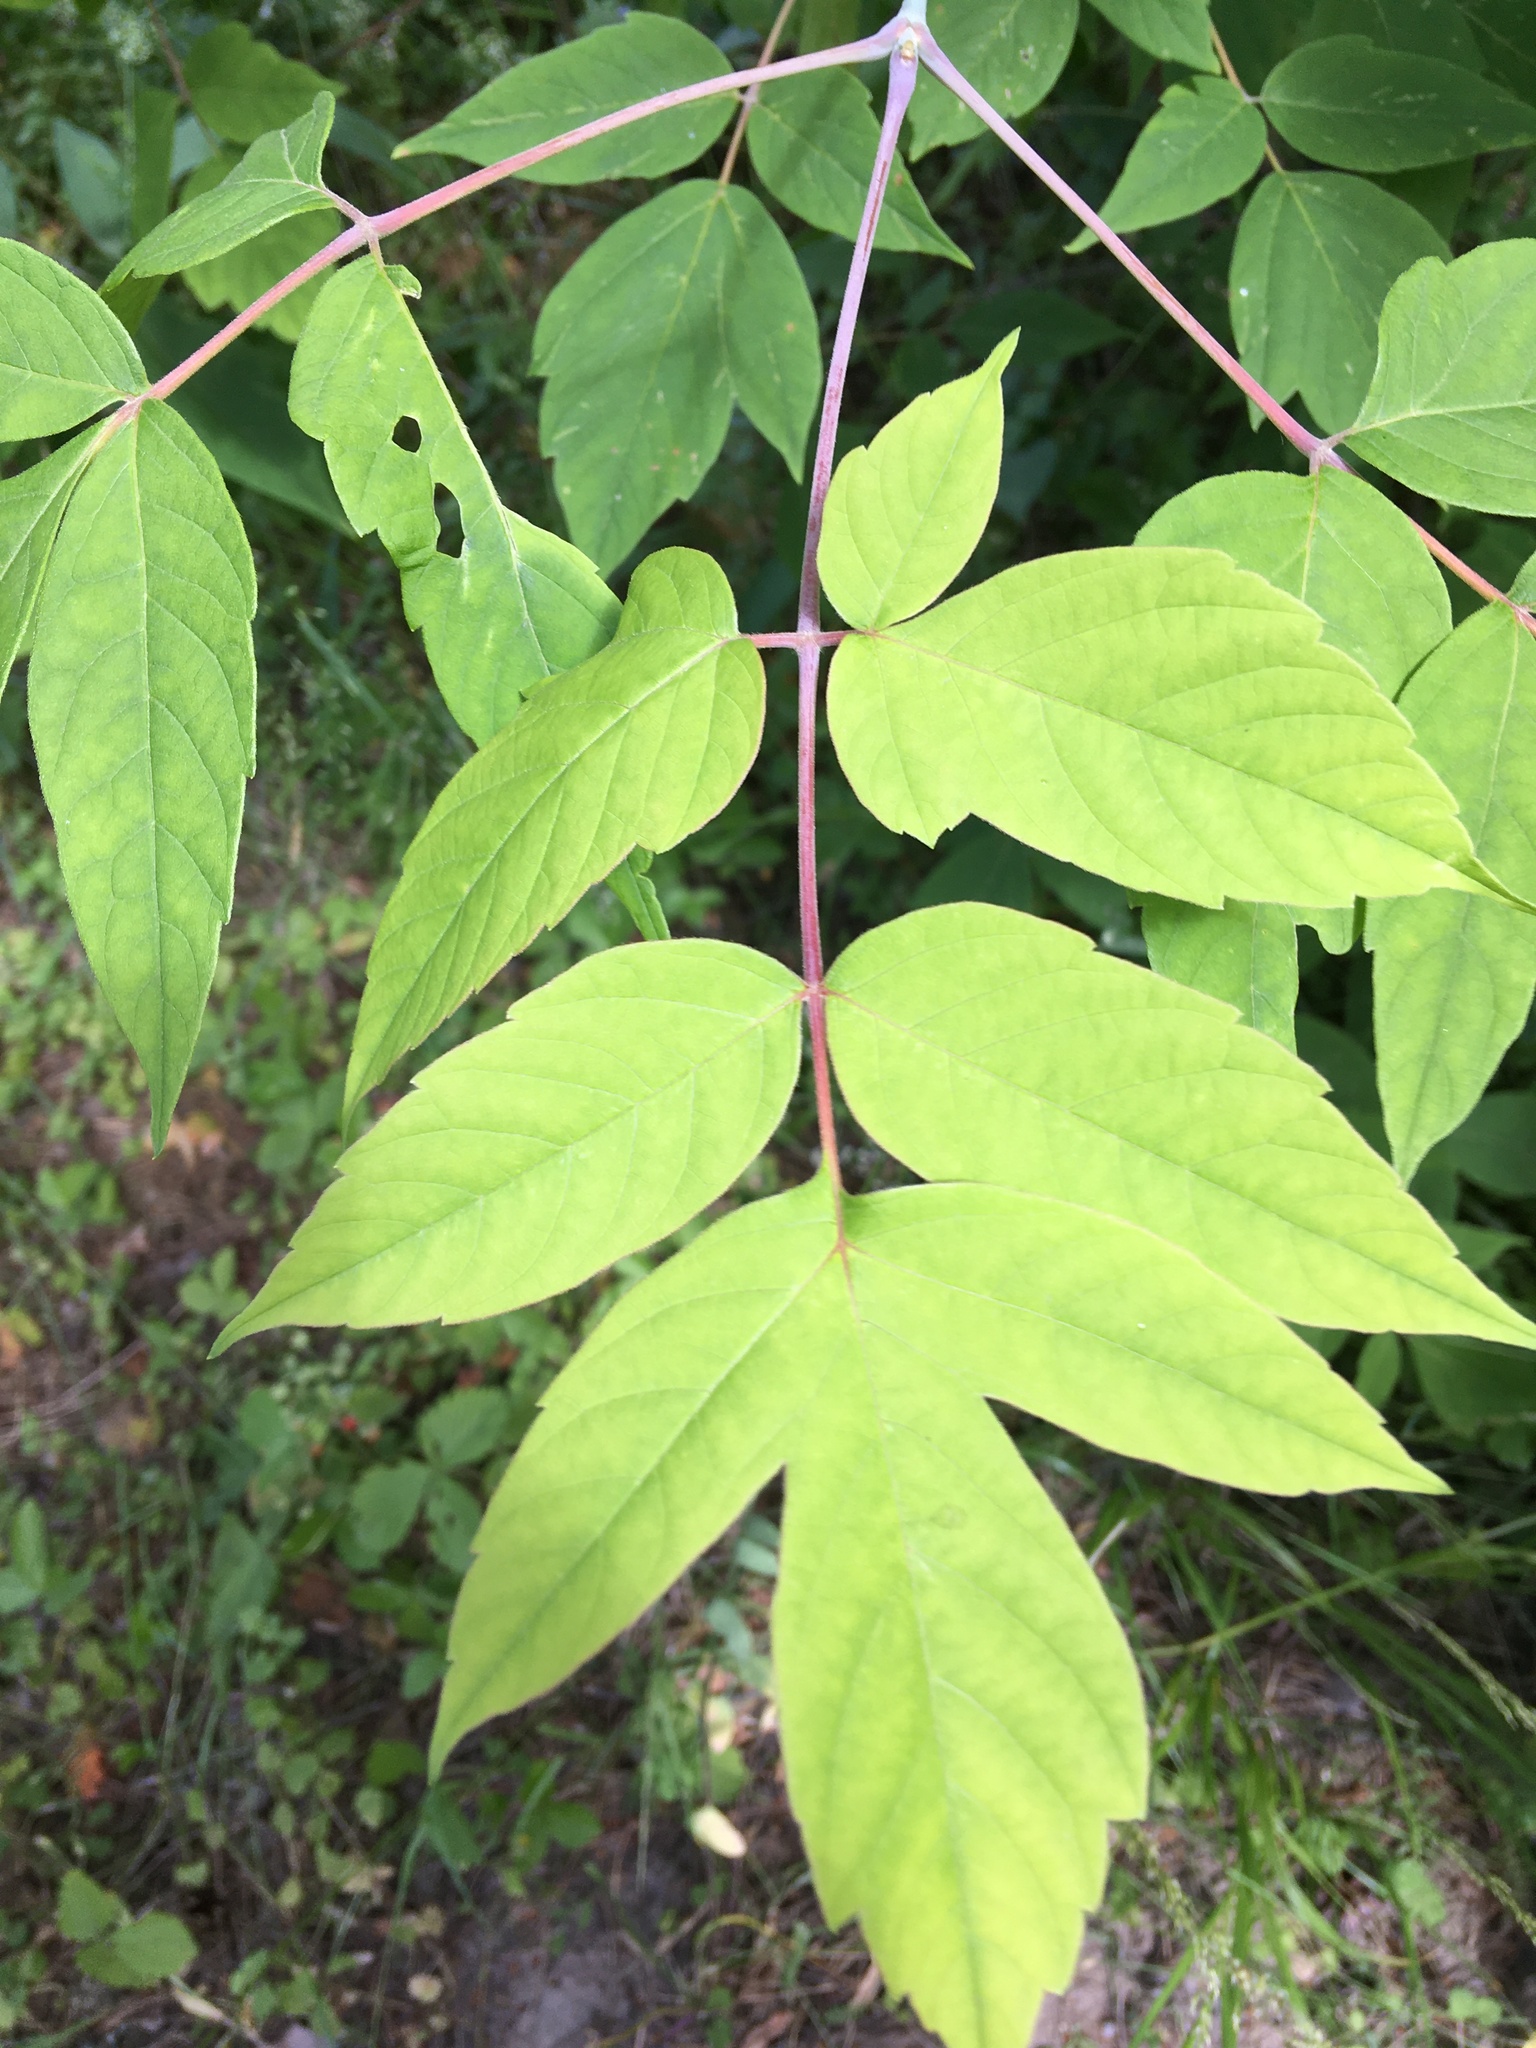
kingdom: Plantae
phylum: Tracheophyta
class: Magnoliopsida
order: Sapindales
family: Sapindaceae
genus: Acer
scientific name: Acer negundo
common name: Ashleaf maple
